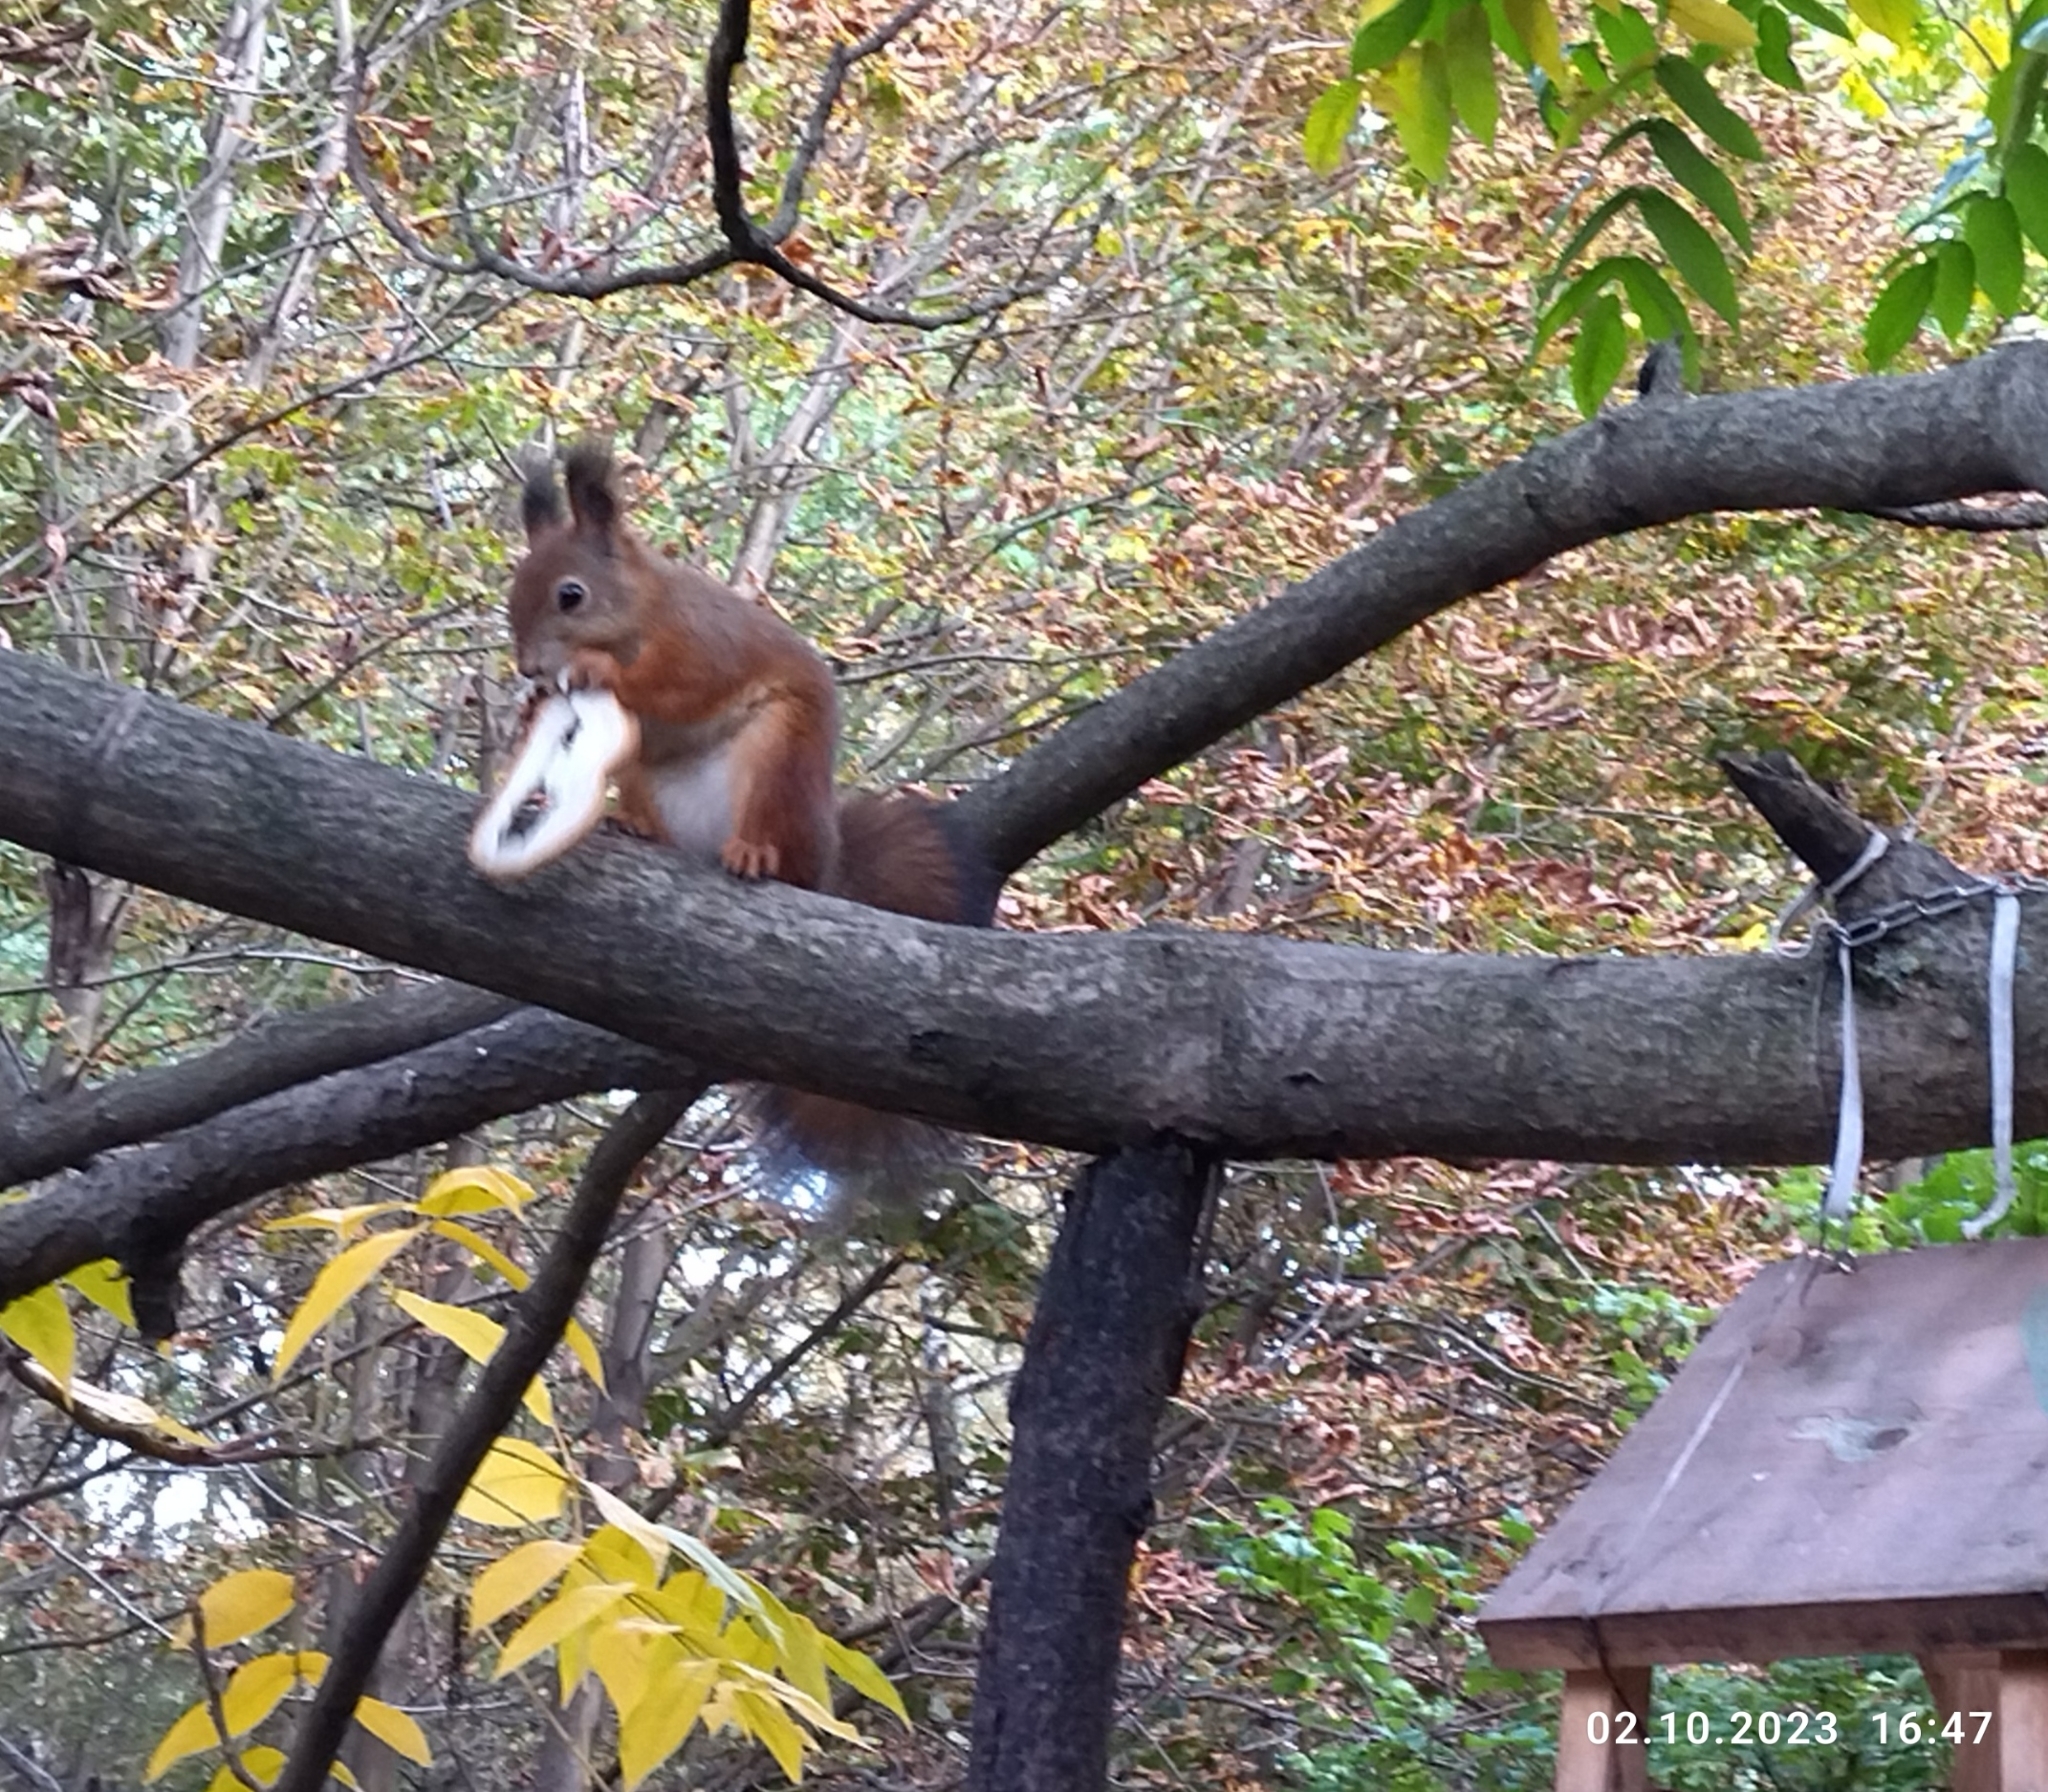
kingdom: Animalia
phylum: Chordata
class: Mammalia
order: Rodentia
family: Sciuridae
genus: Sciurus
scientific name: Sciurus vulgaris
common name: Eurasian red squirrel
